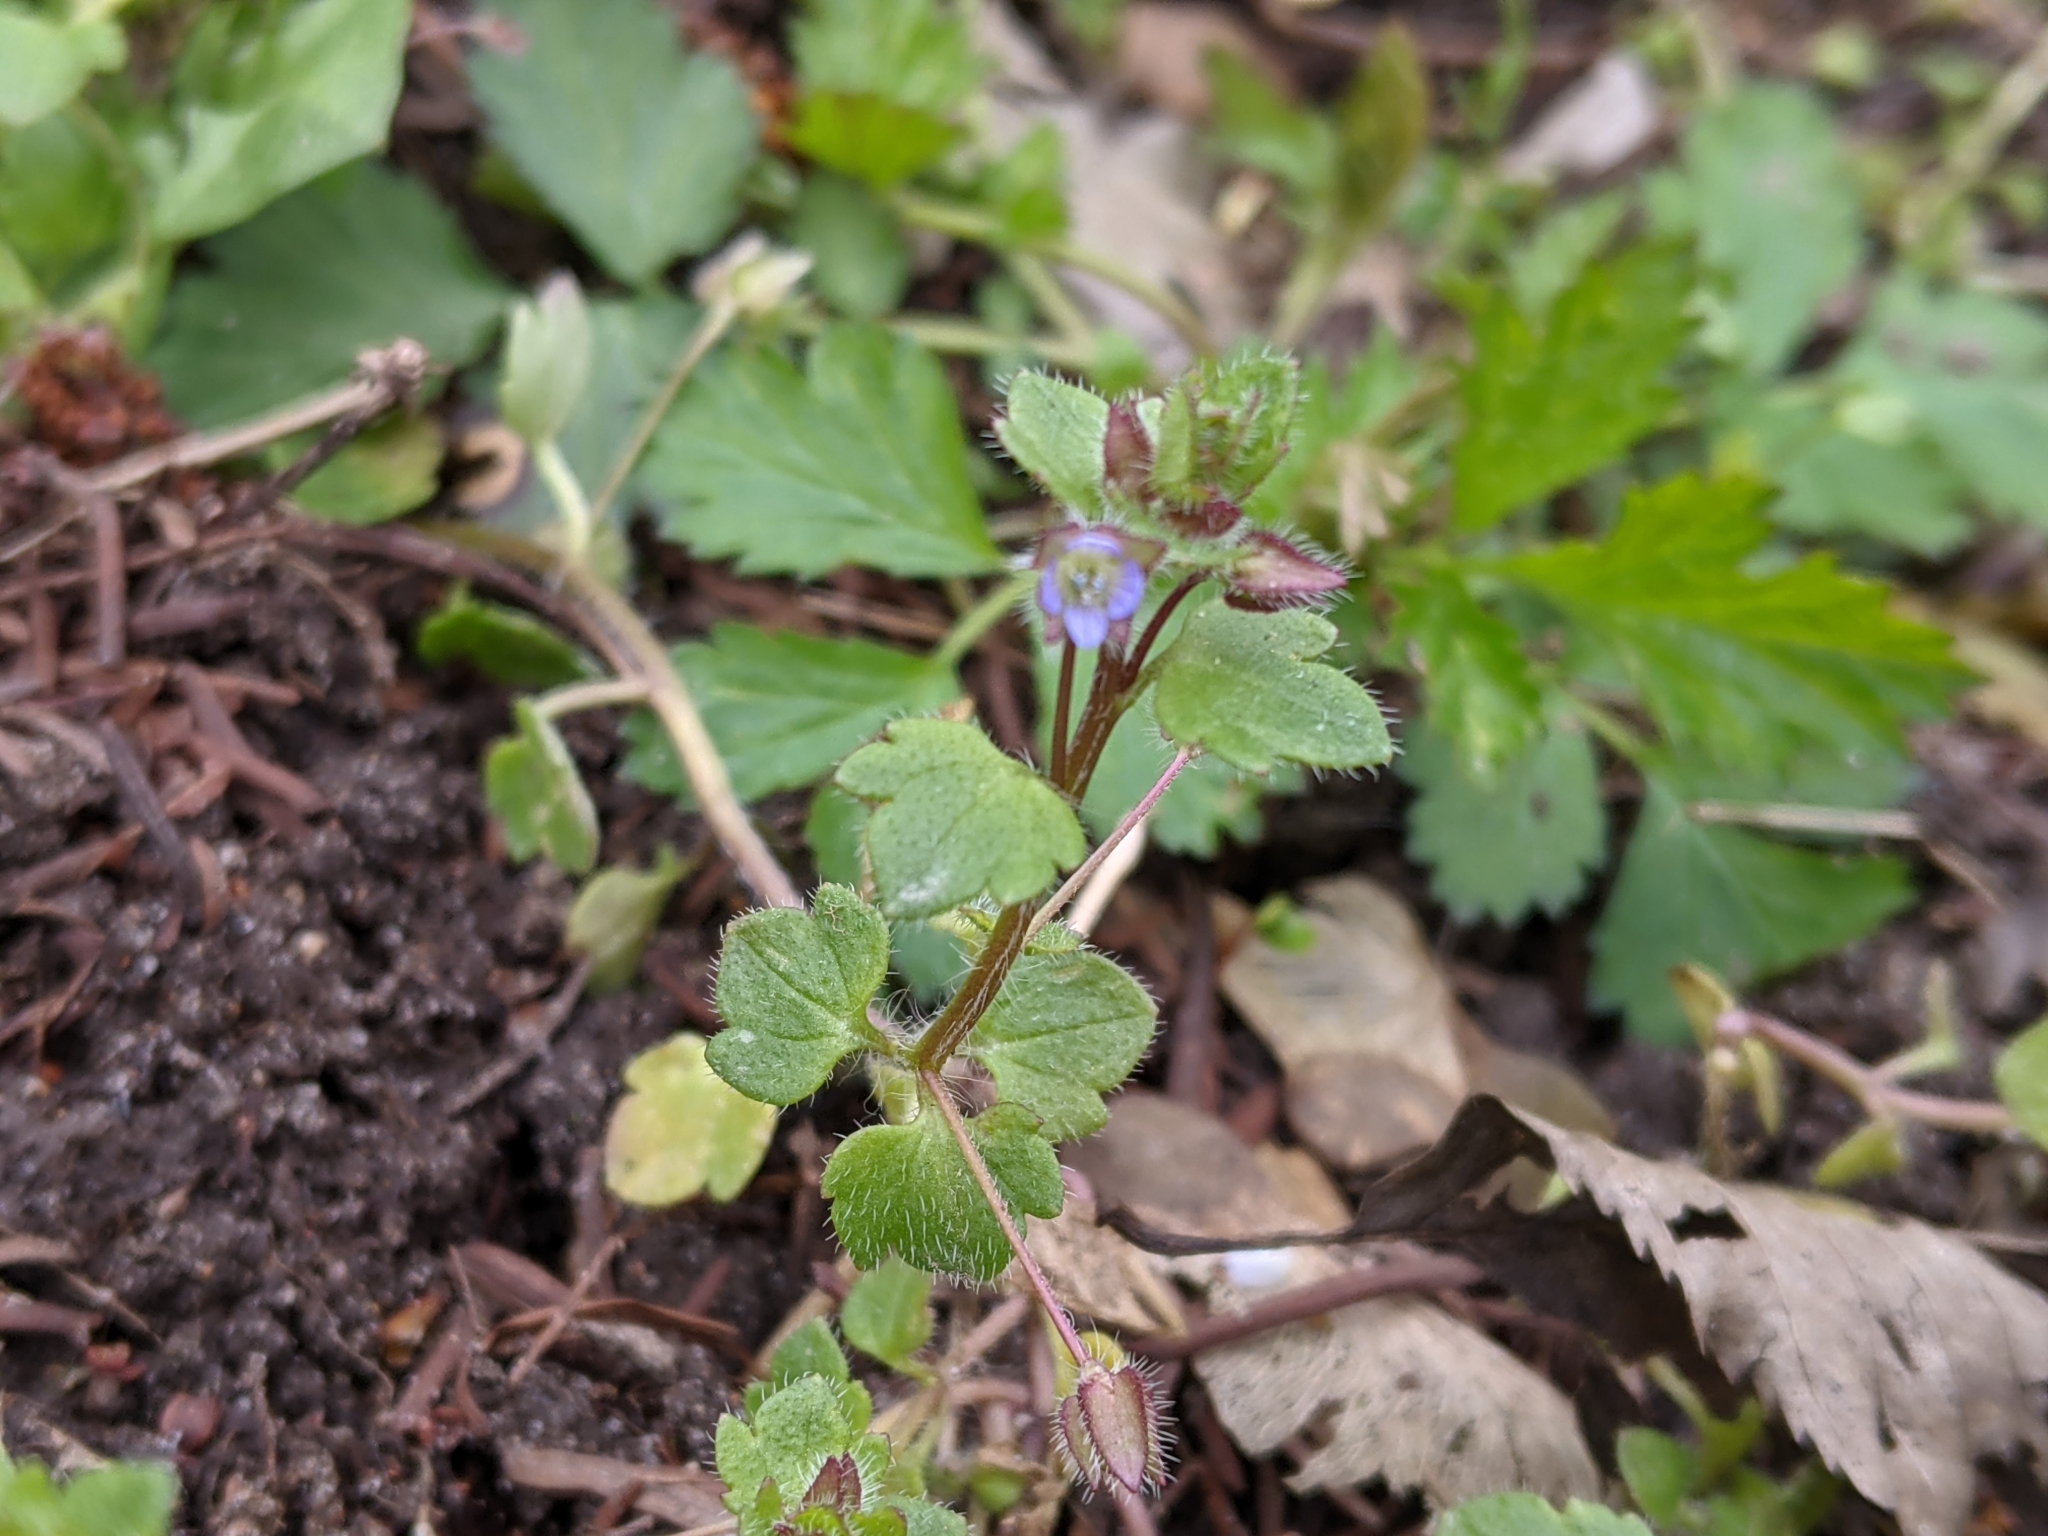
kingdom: Plantae
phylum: Tracheophyta
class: Magnoliopsida
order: Lamiales
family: Plantaginaceae
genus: Veronica
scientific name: Veronica hederifolia
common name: Ivy-leaved speedwell
